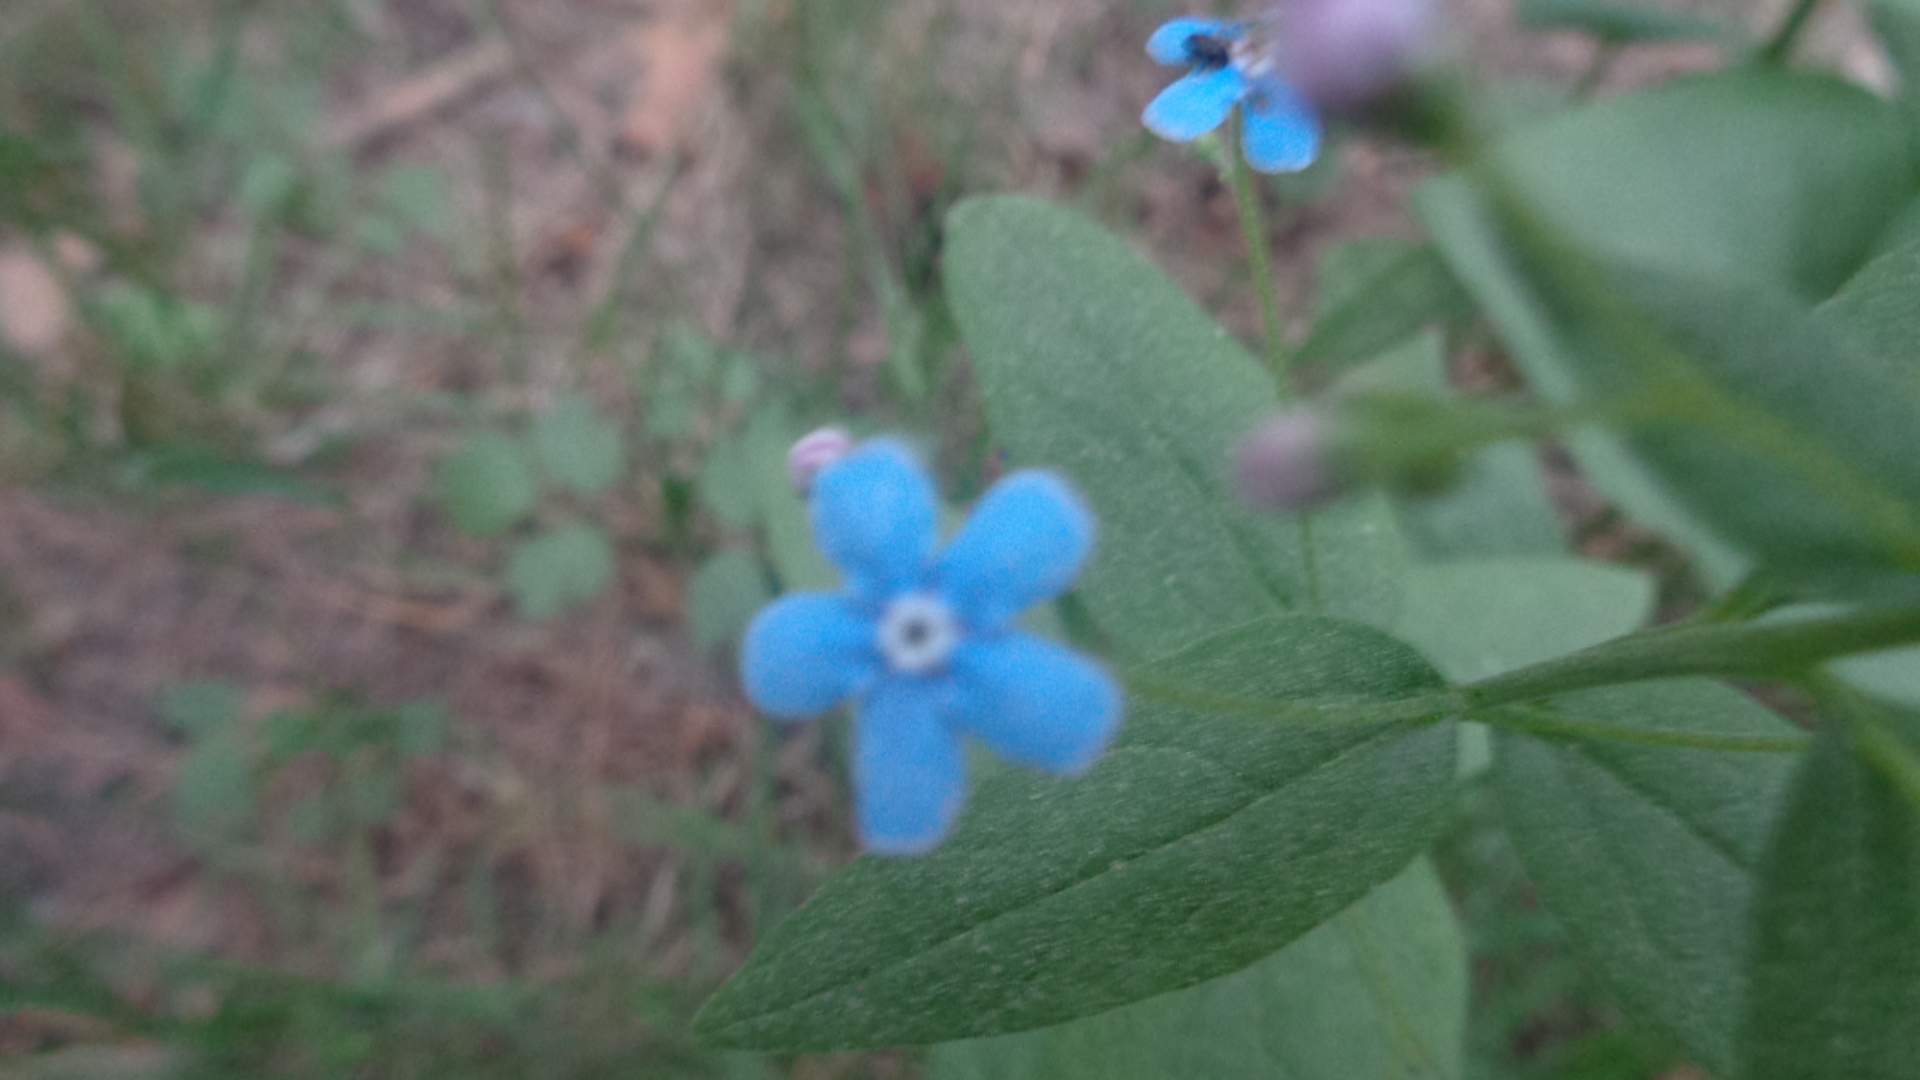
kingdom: Plantae
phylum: Tracheophyta
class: Magnoliopsida
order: Boraginales
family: Boraginaceae
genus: Brunnera
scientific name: Brunnera sibirica
